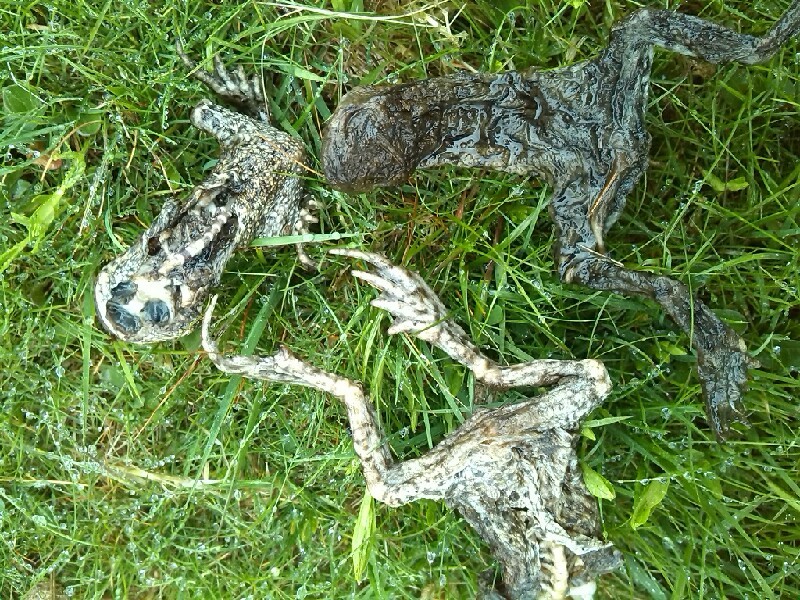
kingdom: Animalia
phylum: Chordata
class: Amphibia
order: Anura
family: Bufonidae
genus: Bufo
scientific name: Bufo bufo
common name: Common toad
